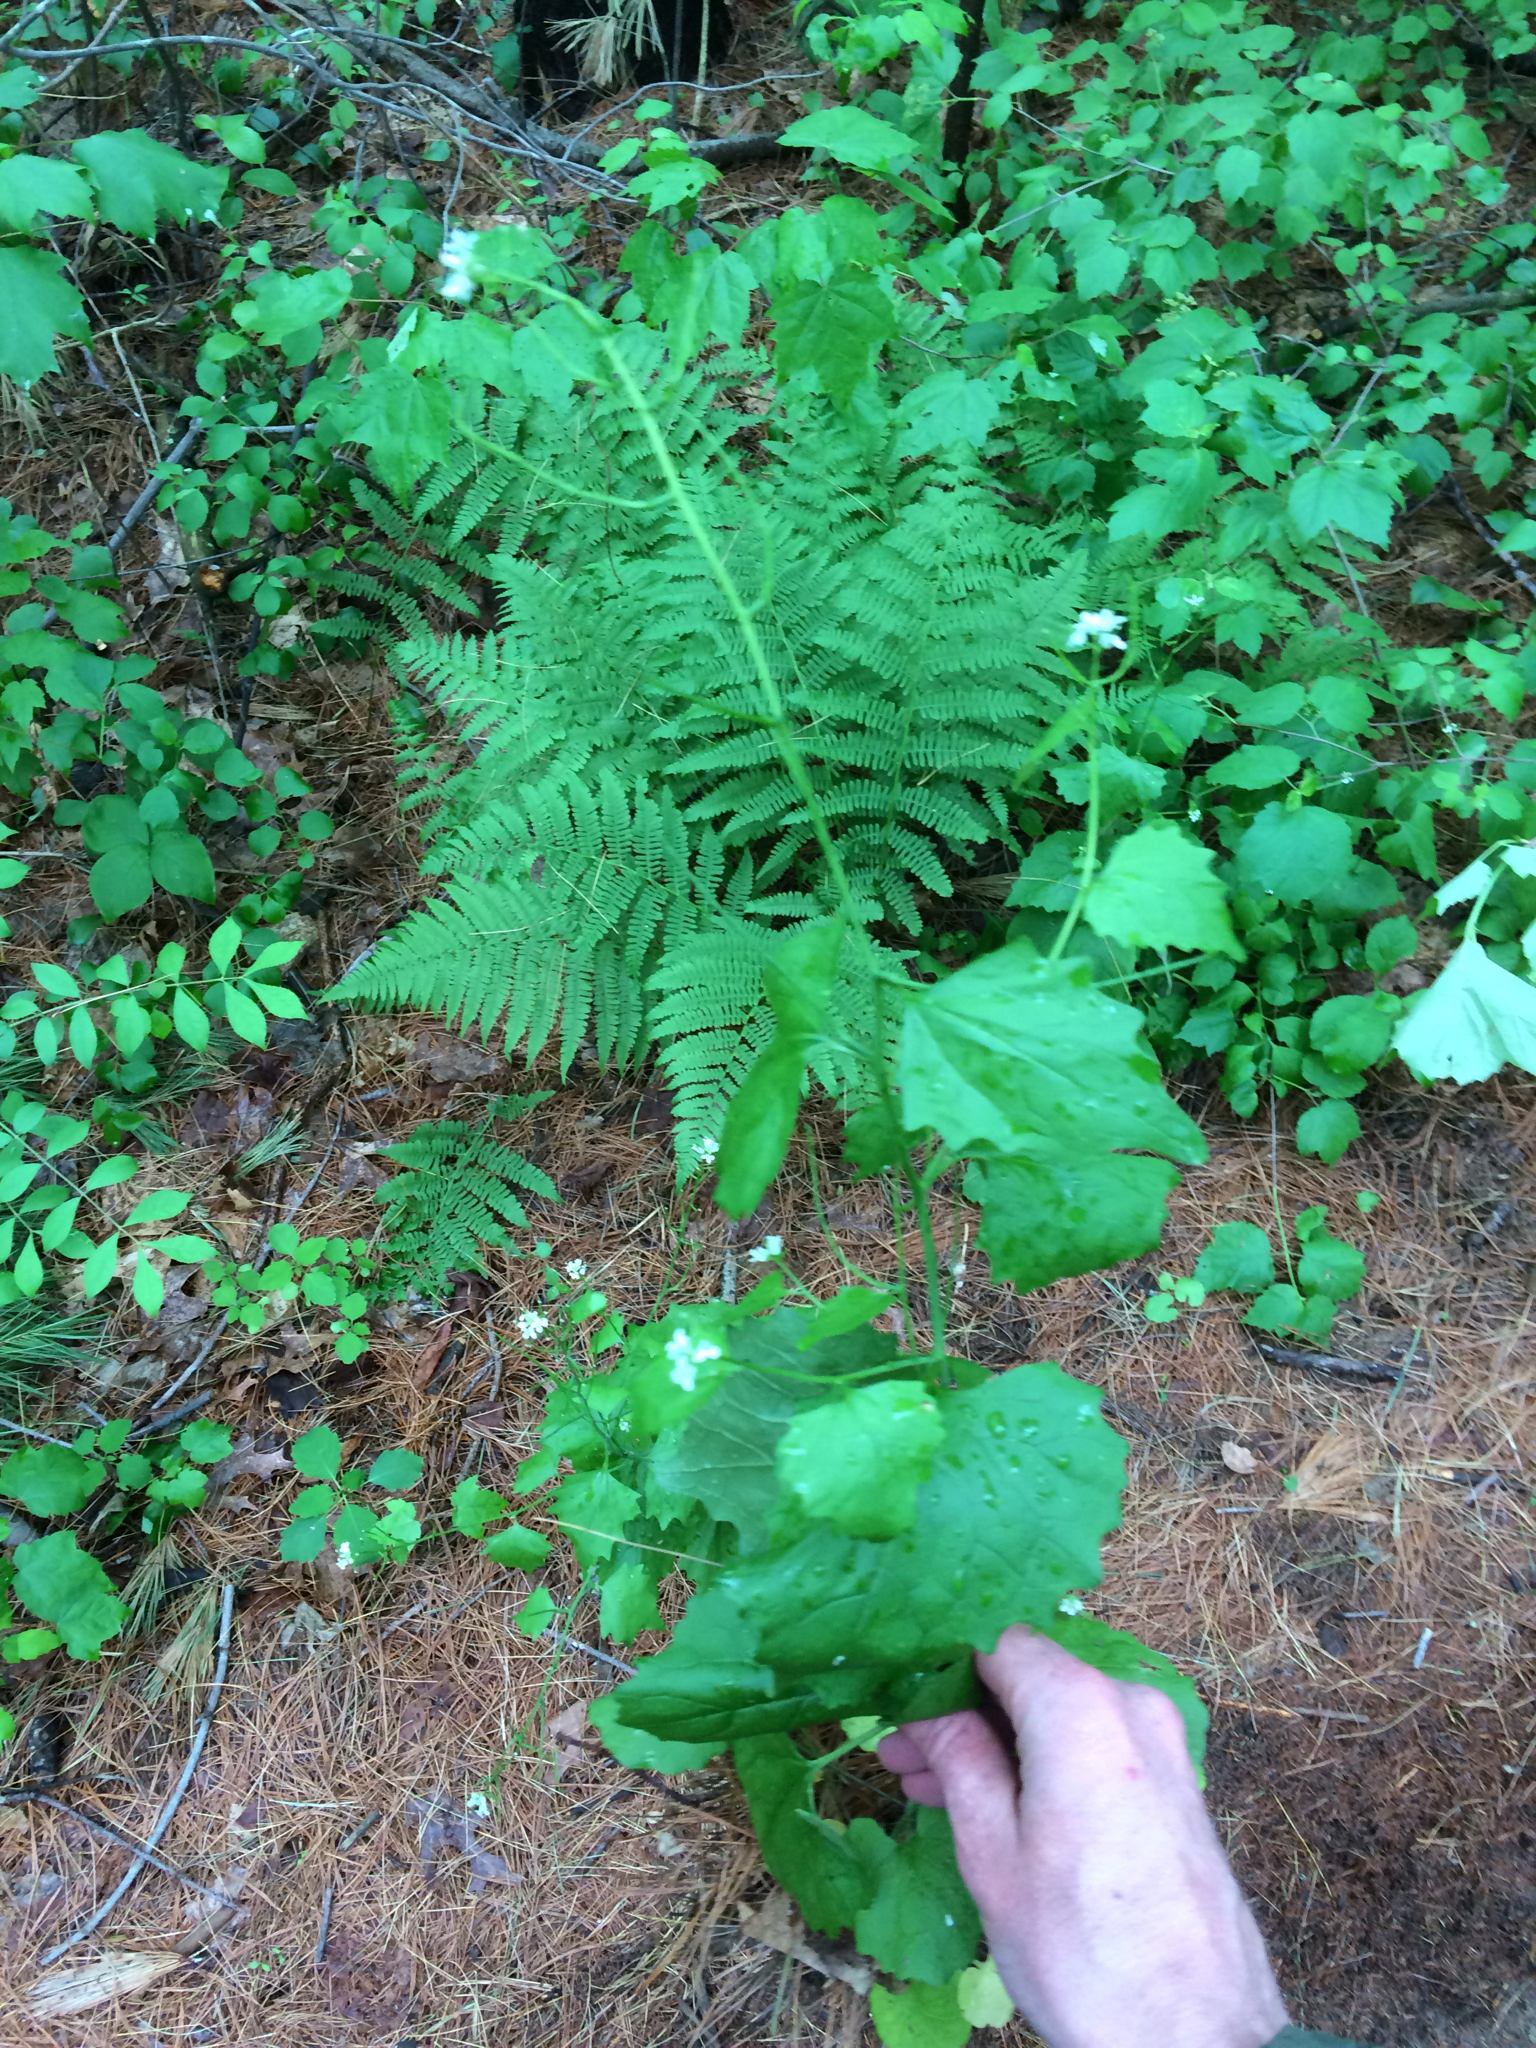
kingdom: Plantae
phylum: Tracheophyta
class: Magnoliopsida
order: Brassicales
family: Brassicaceae
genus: Alliaria
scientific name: Alliaria petiolata
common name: Garlic mustard
